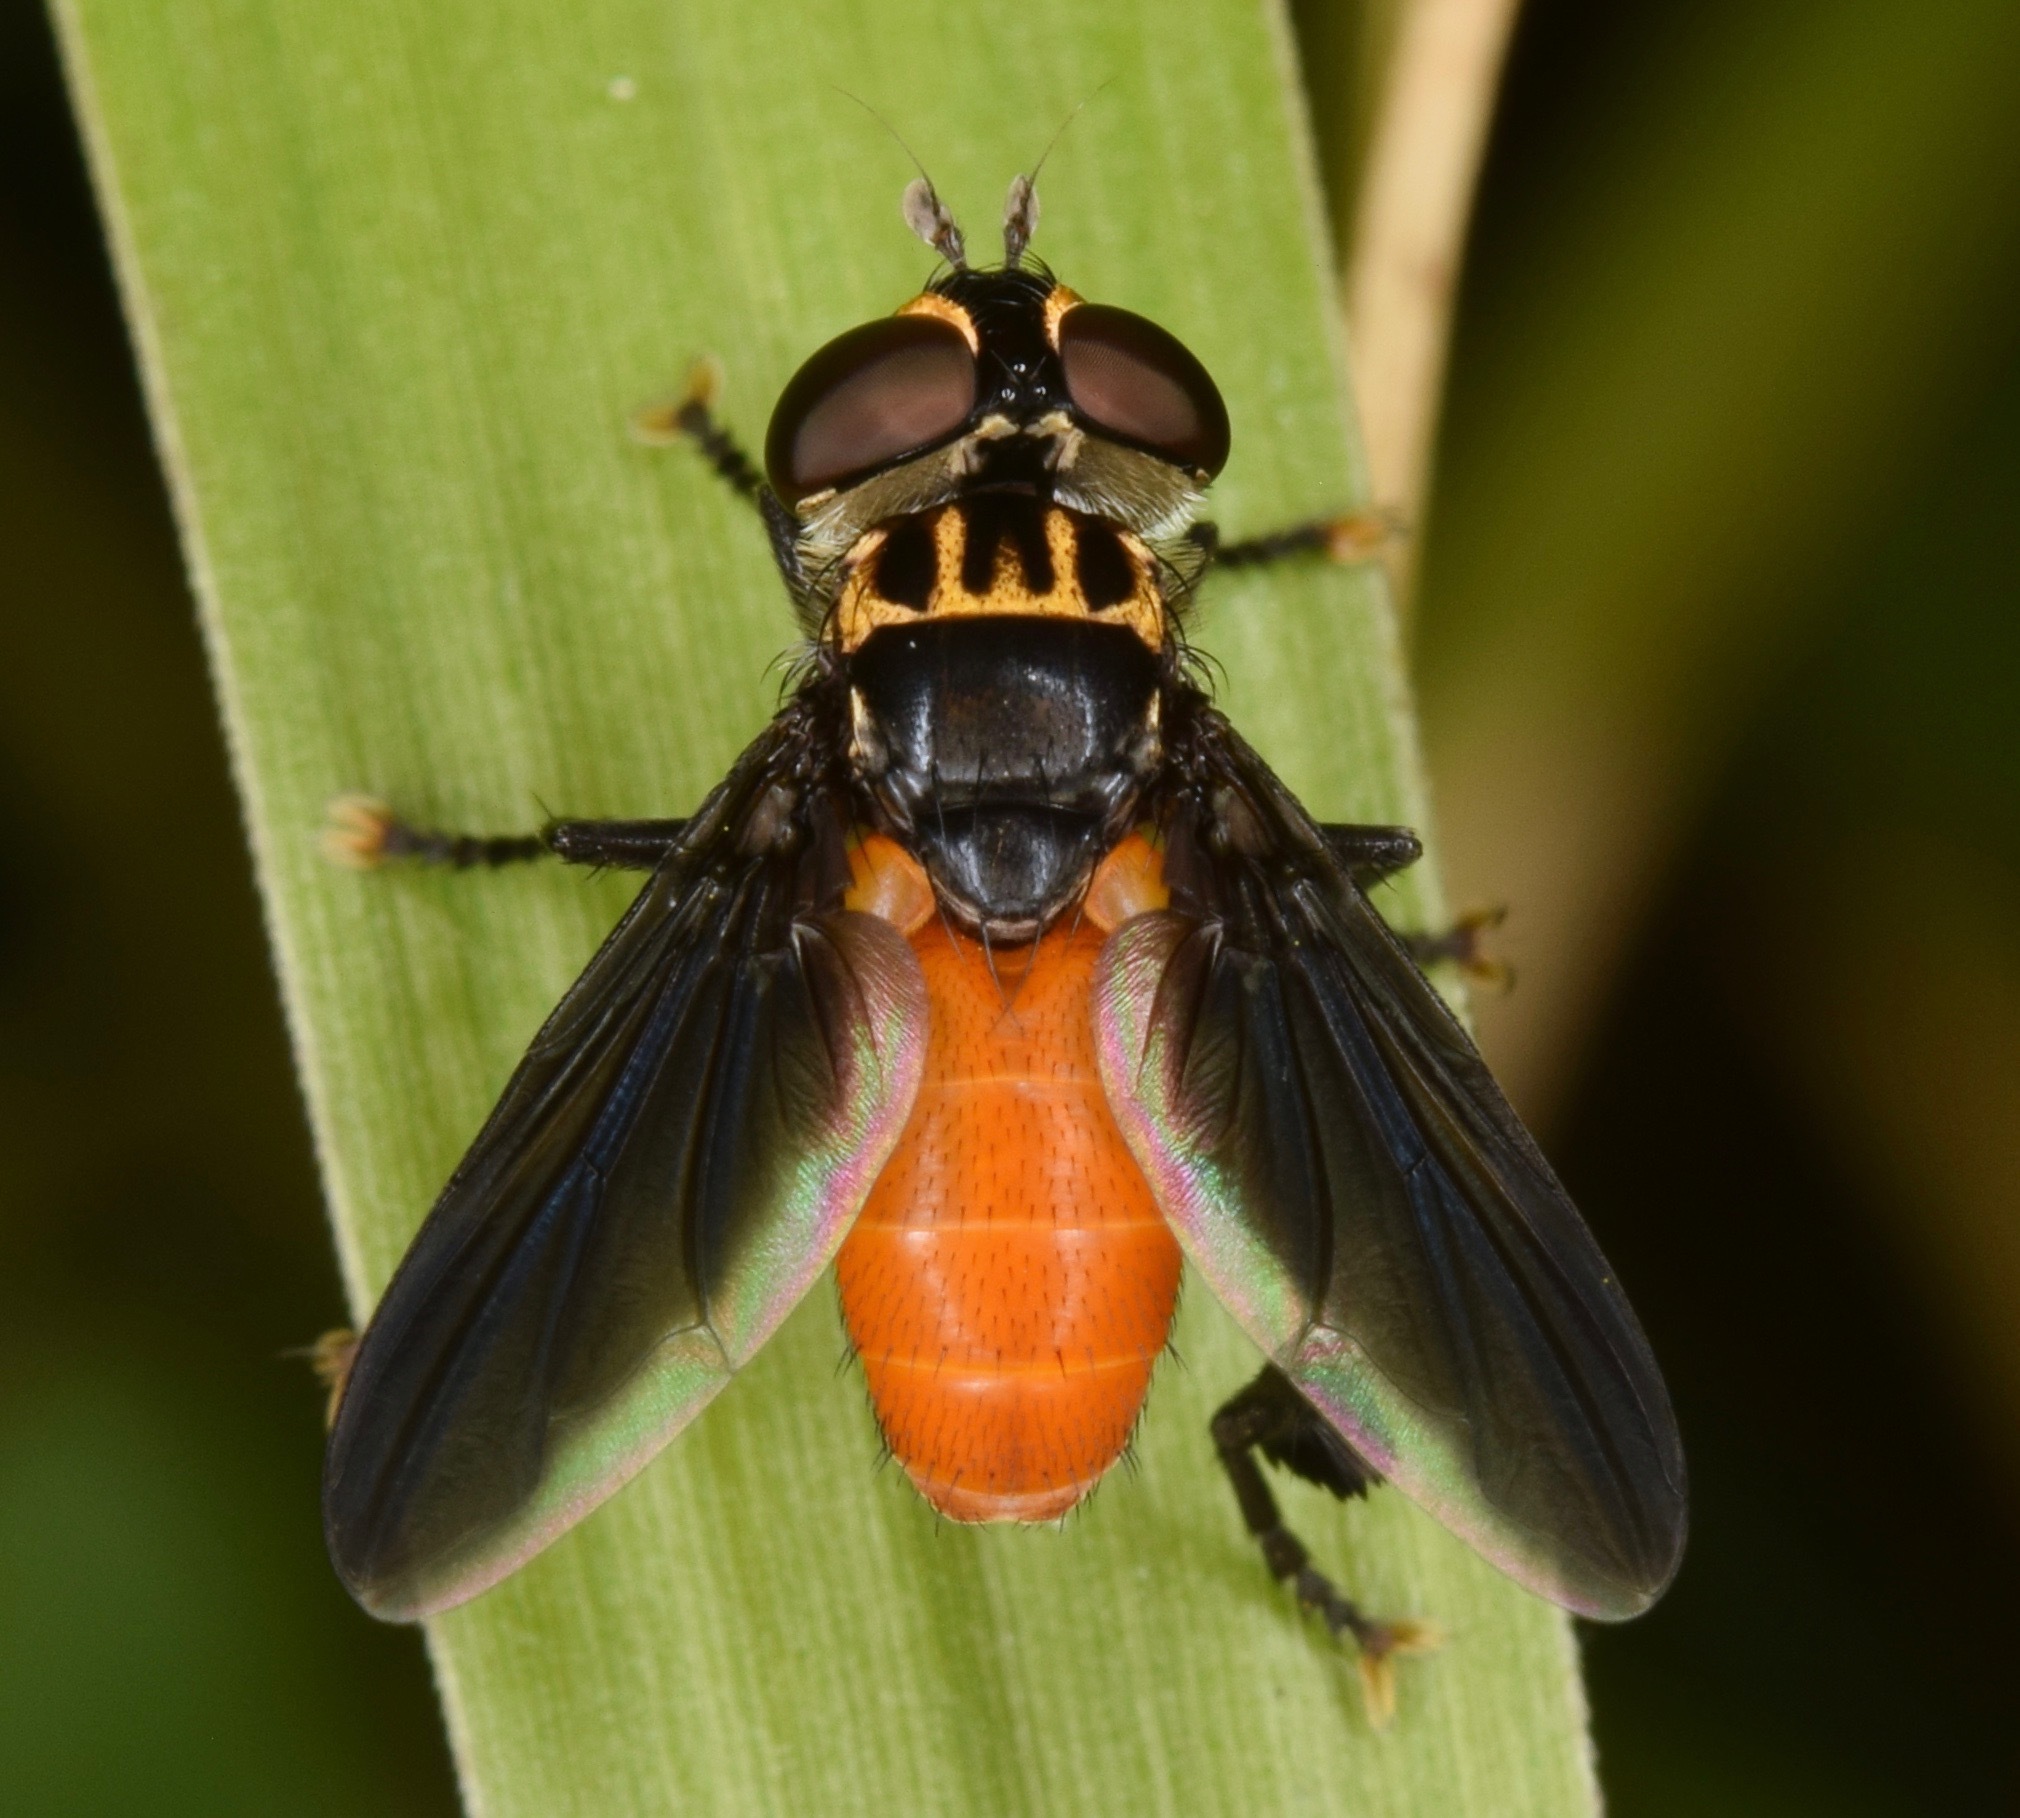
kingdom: Animalia
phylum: Arthropoda
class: Insecta
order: Diptera
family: Tachinidae
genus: Trichopoda
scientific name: Trichopoda pennipes
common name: Tachinid fly
